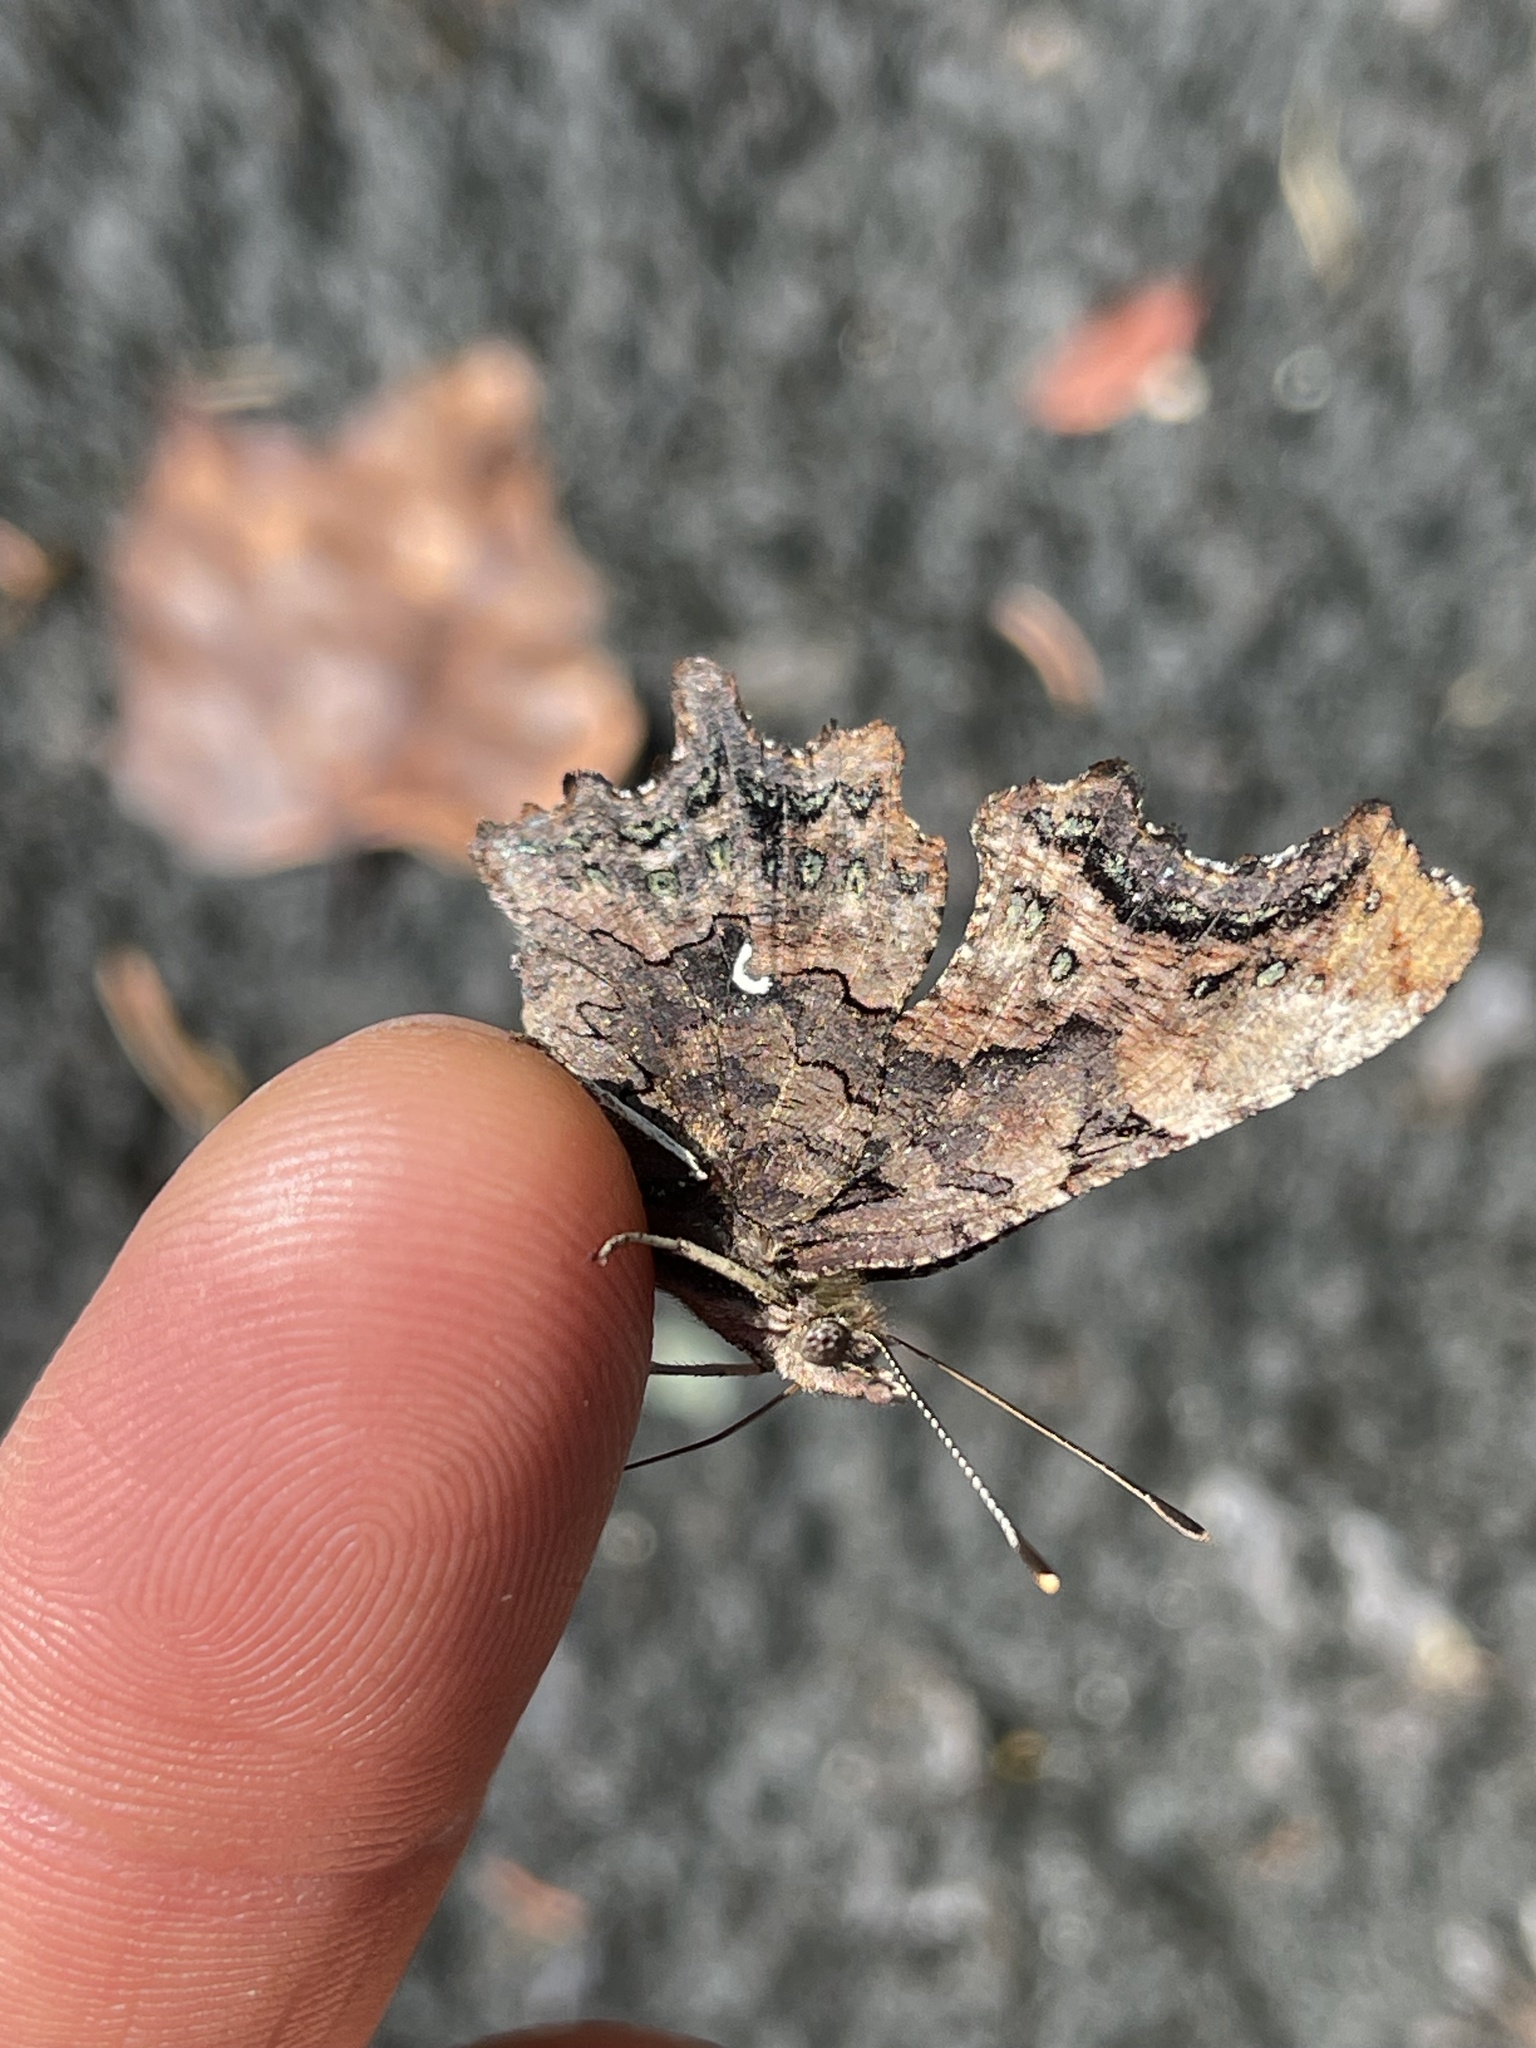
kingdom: Animalia
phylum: Arthropoda
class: Insecta
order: Lepidoptera
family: Nymphalidae
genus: Polygonia
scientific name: Polygonia faunus
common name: Green comma
